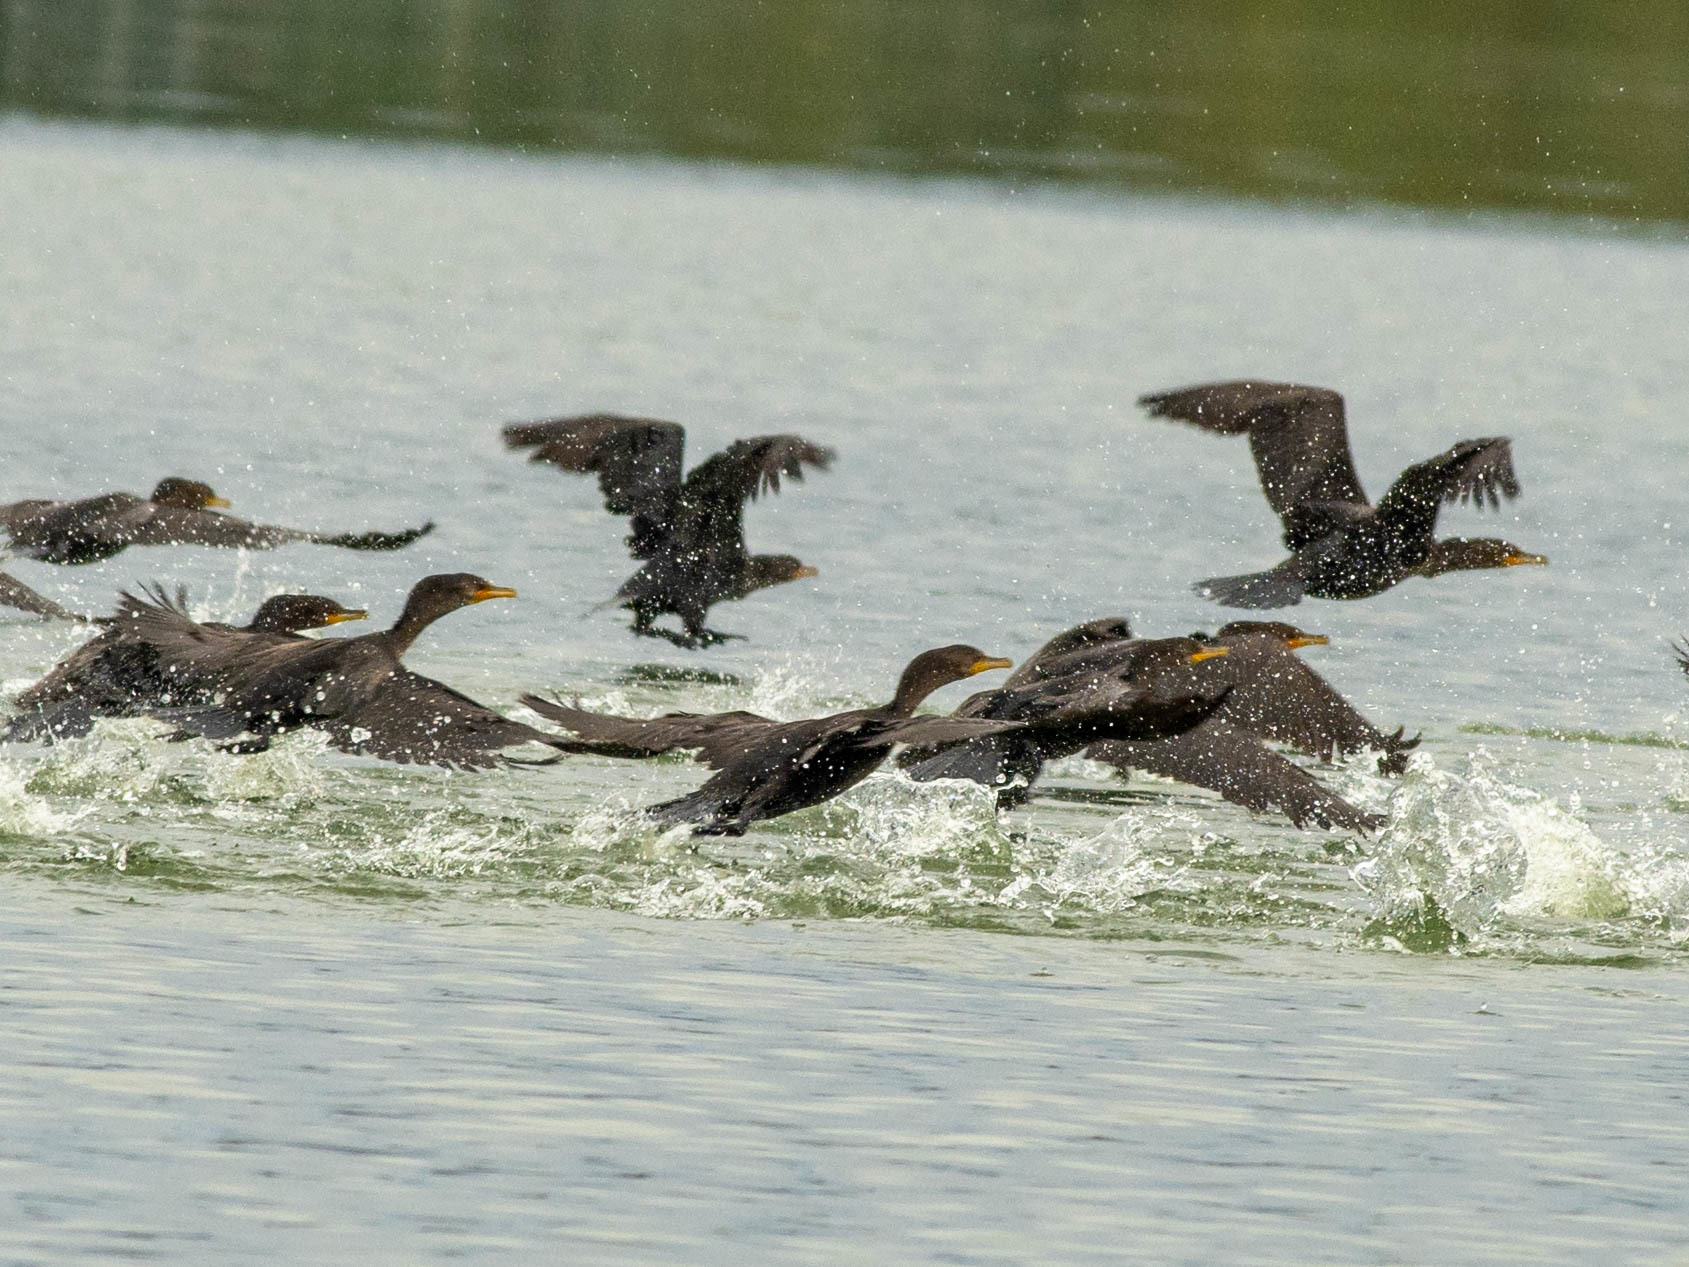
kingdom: Animalia
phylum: Chordata
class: Aves
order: Suliformes
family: Phalacrocoracidae
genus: Phalacrocorax
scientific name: Phalacrocorax auritus
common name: Double-crested cormorant
